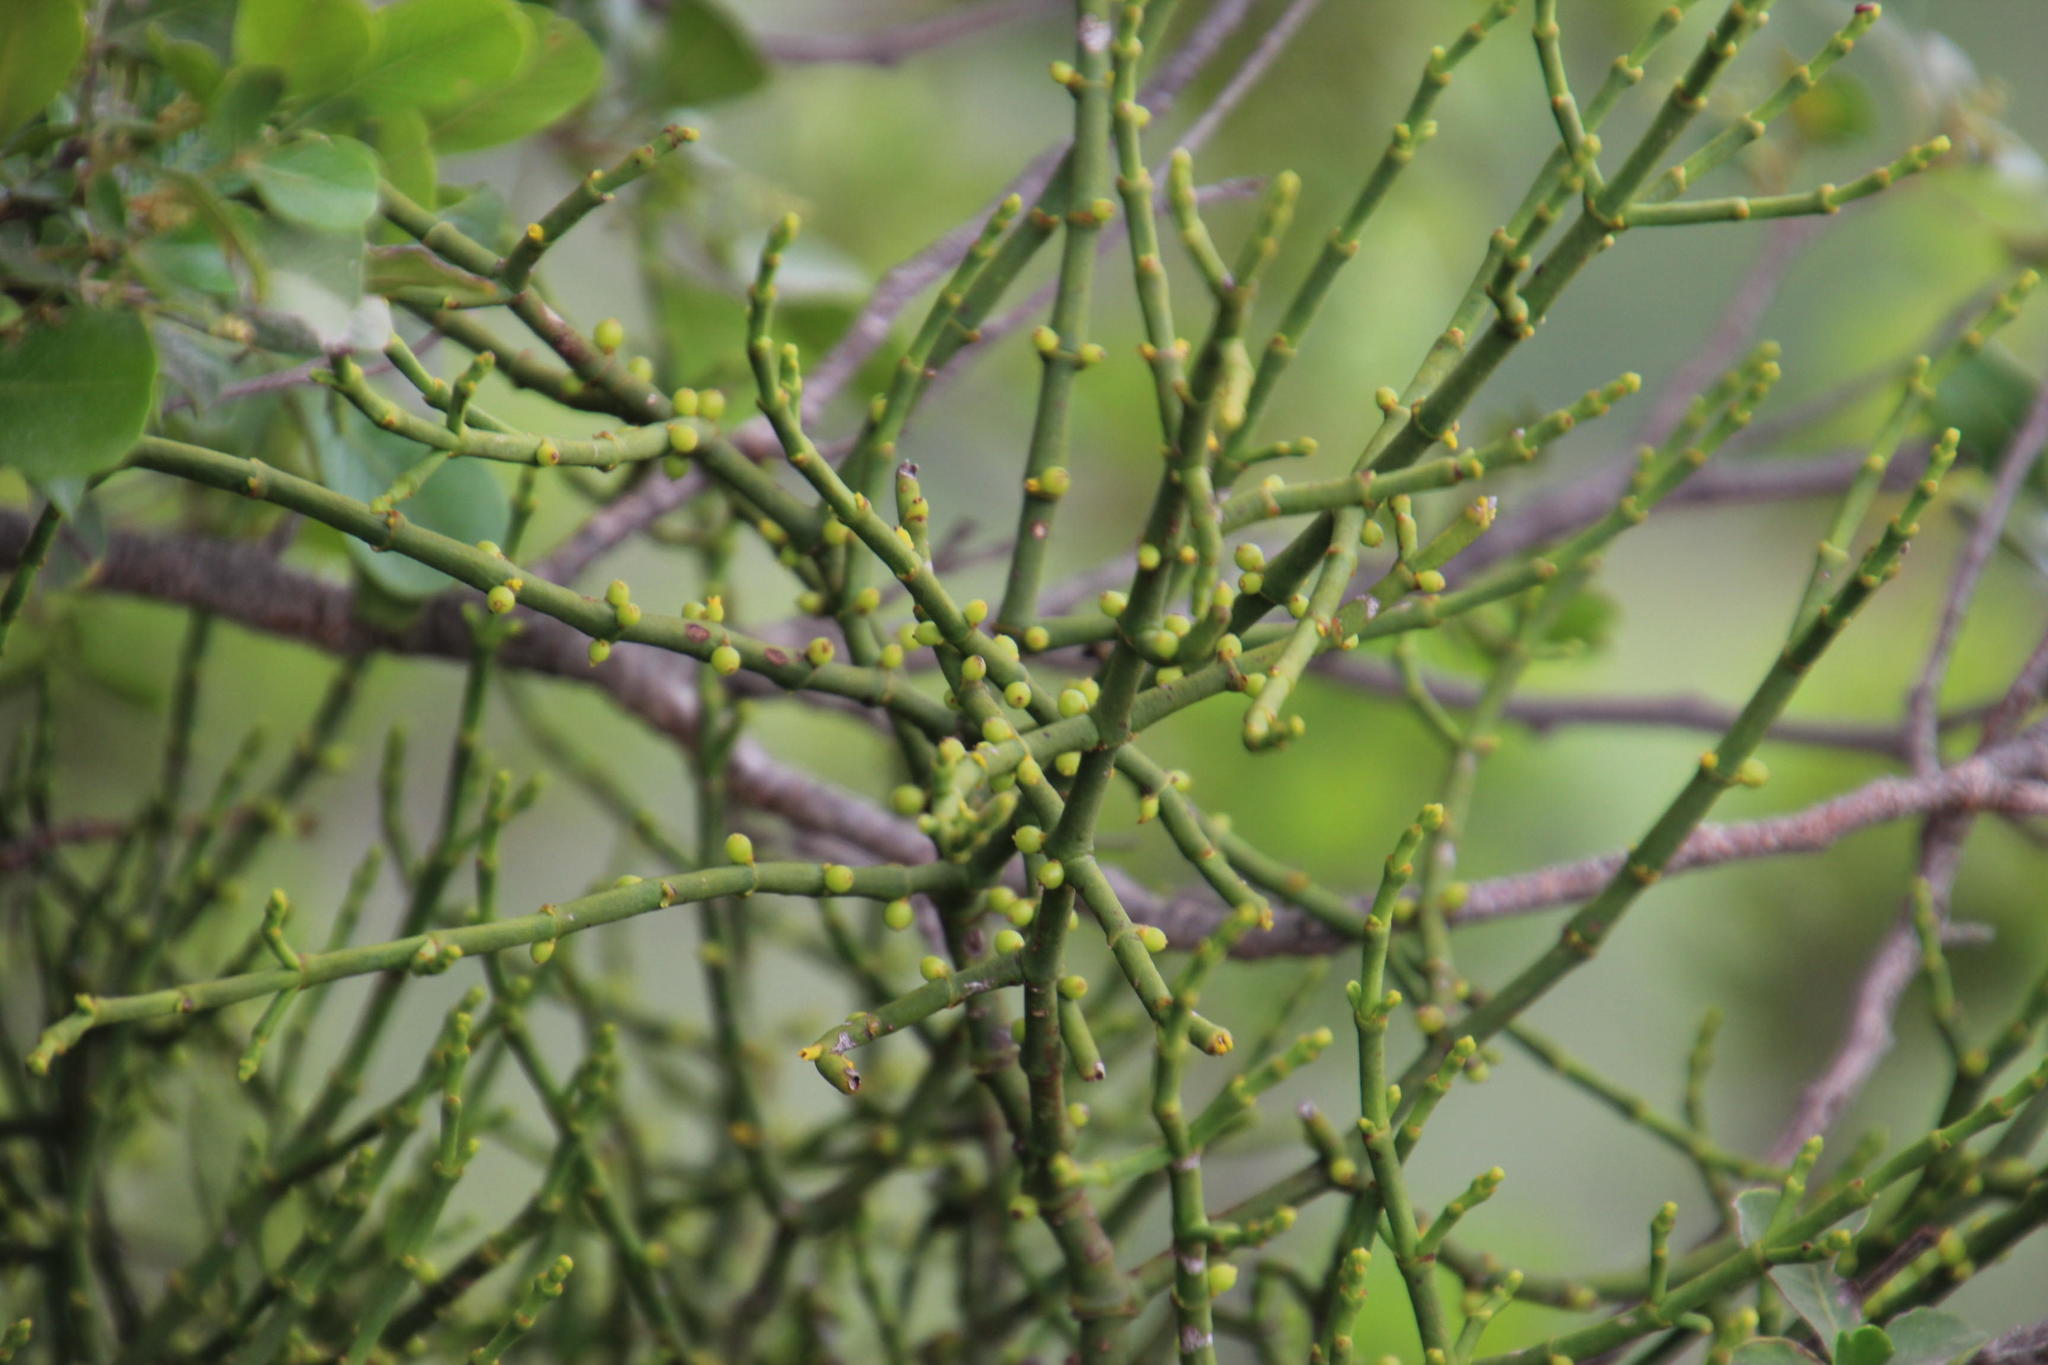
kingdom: Plantae
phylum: Tracheophyta
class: Magnoliopsida
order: Santalales
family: Viscaceae
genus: Viscum
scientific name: Viscum continuum
